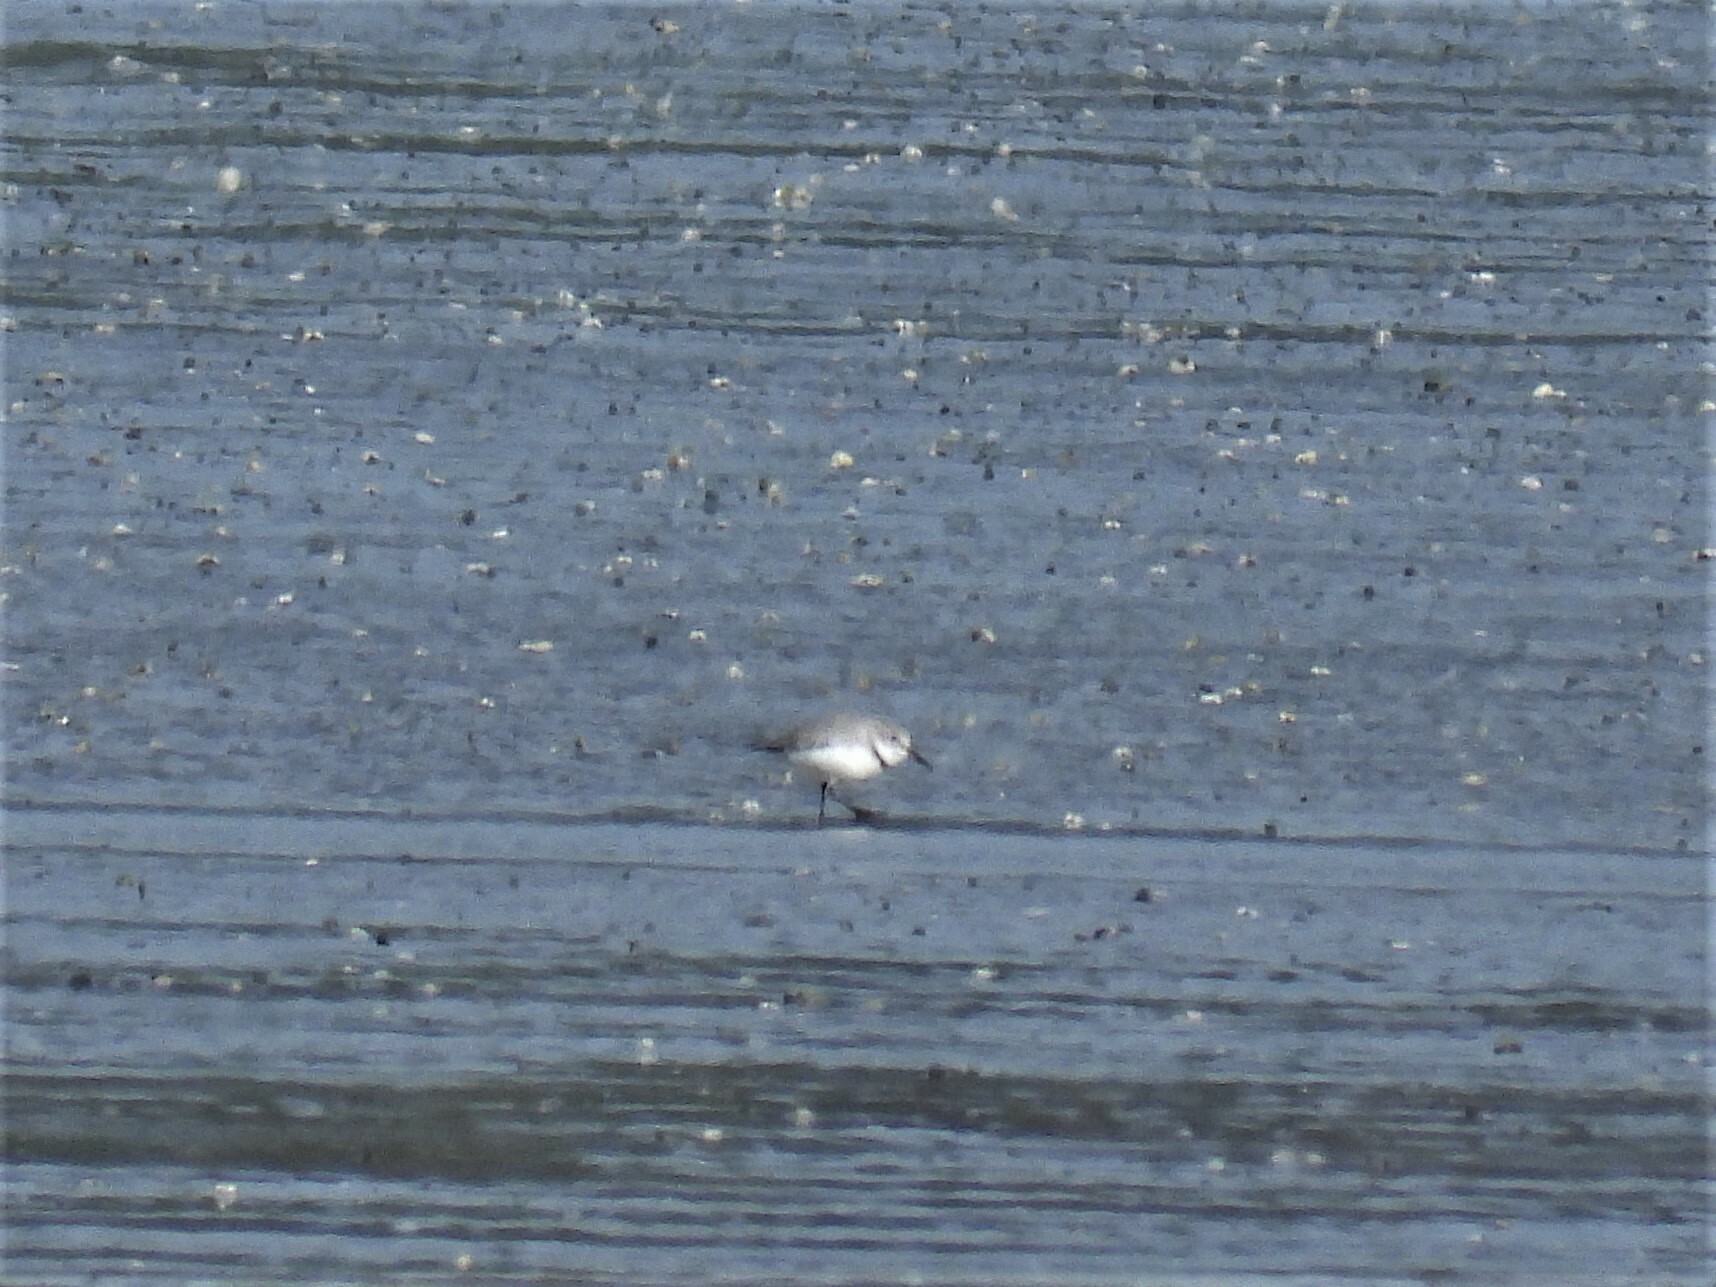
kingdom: Animalia
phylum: Chordata
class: Aves
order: Charadriiformes
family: Charadriidae
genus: Anarhynchus
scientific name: Anarhynchus frontalis
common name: Wrybill
